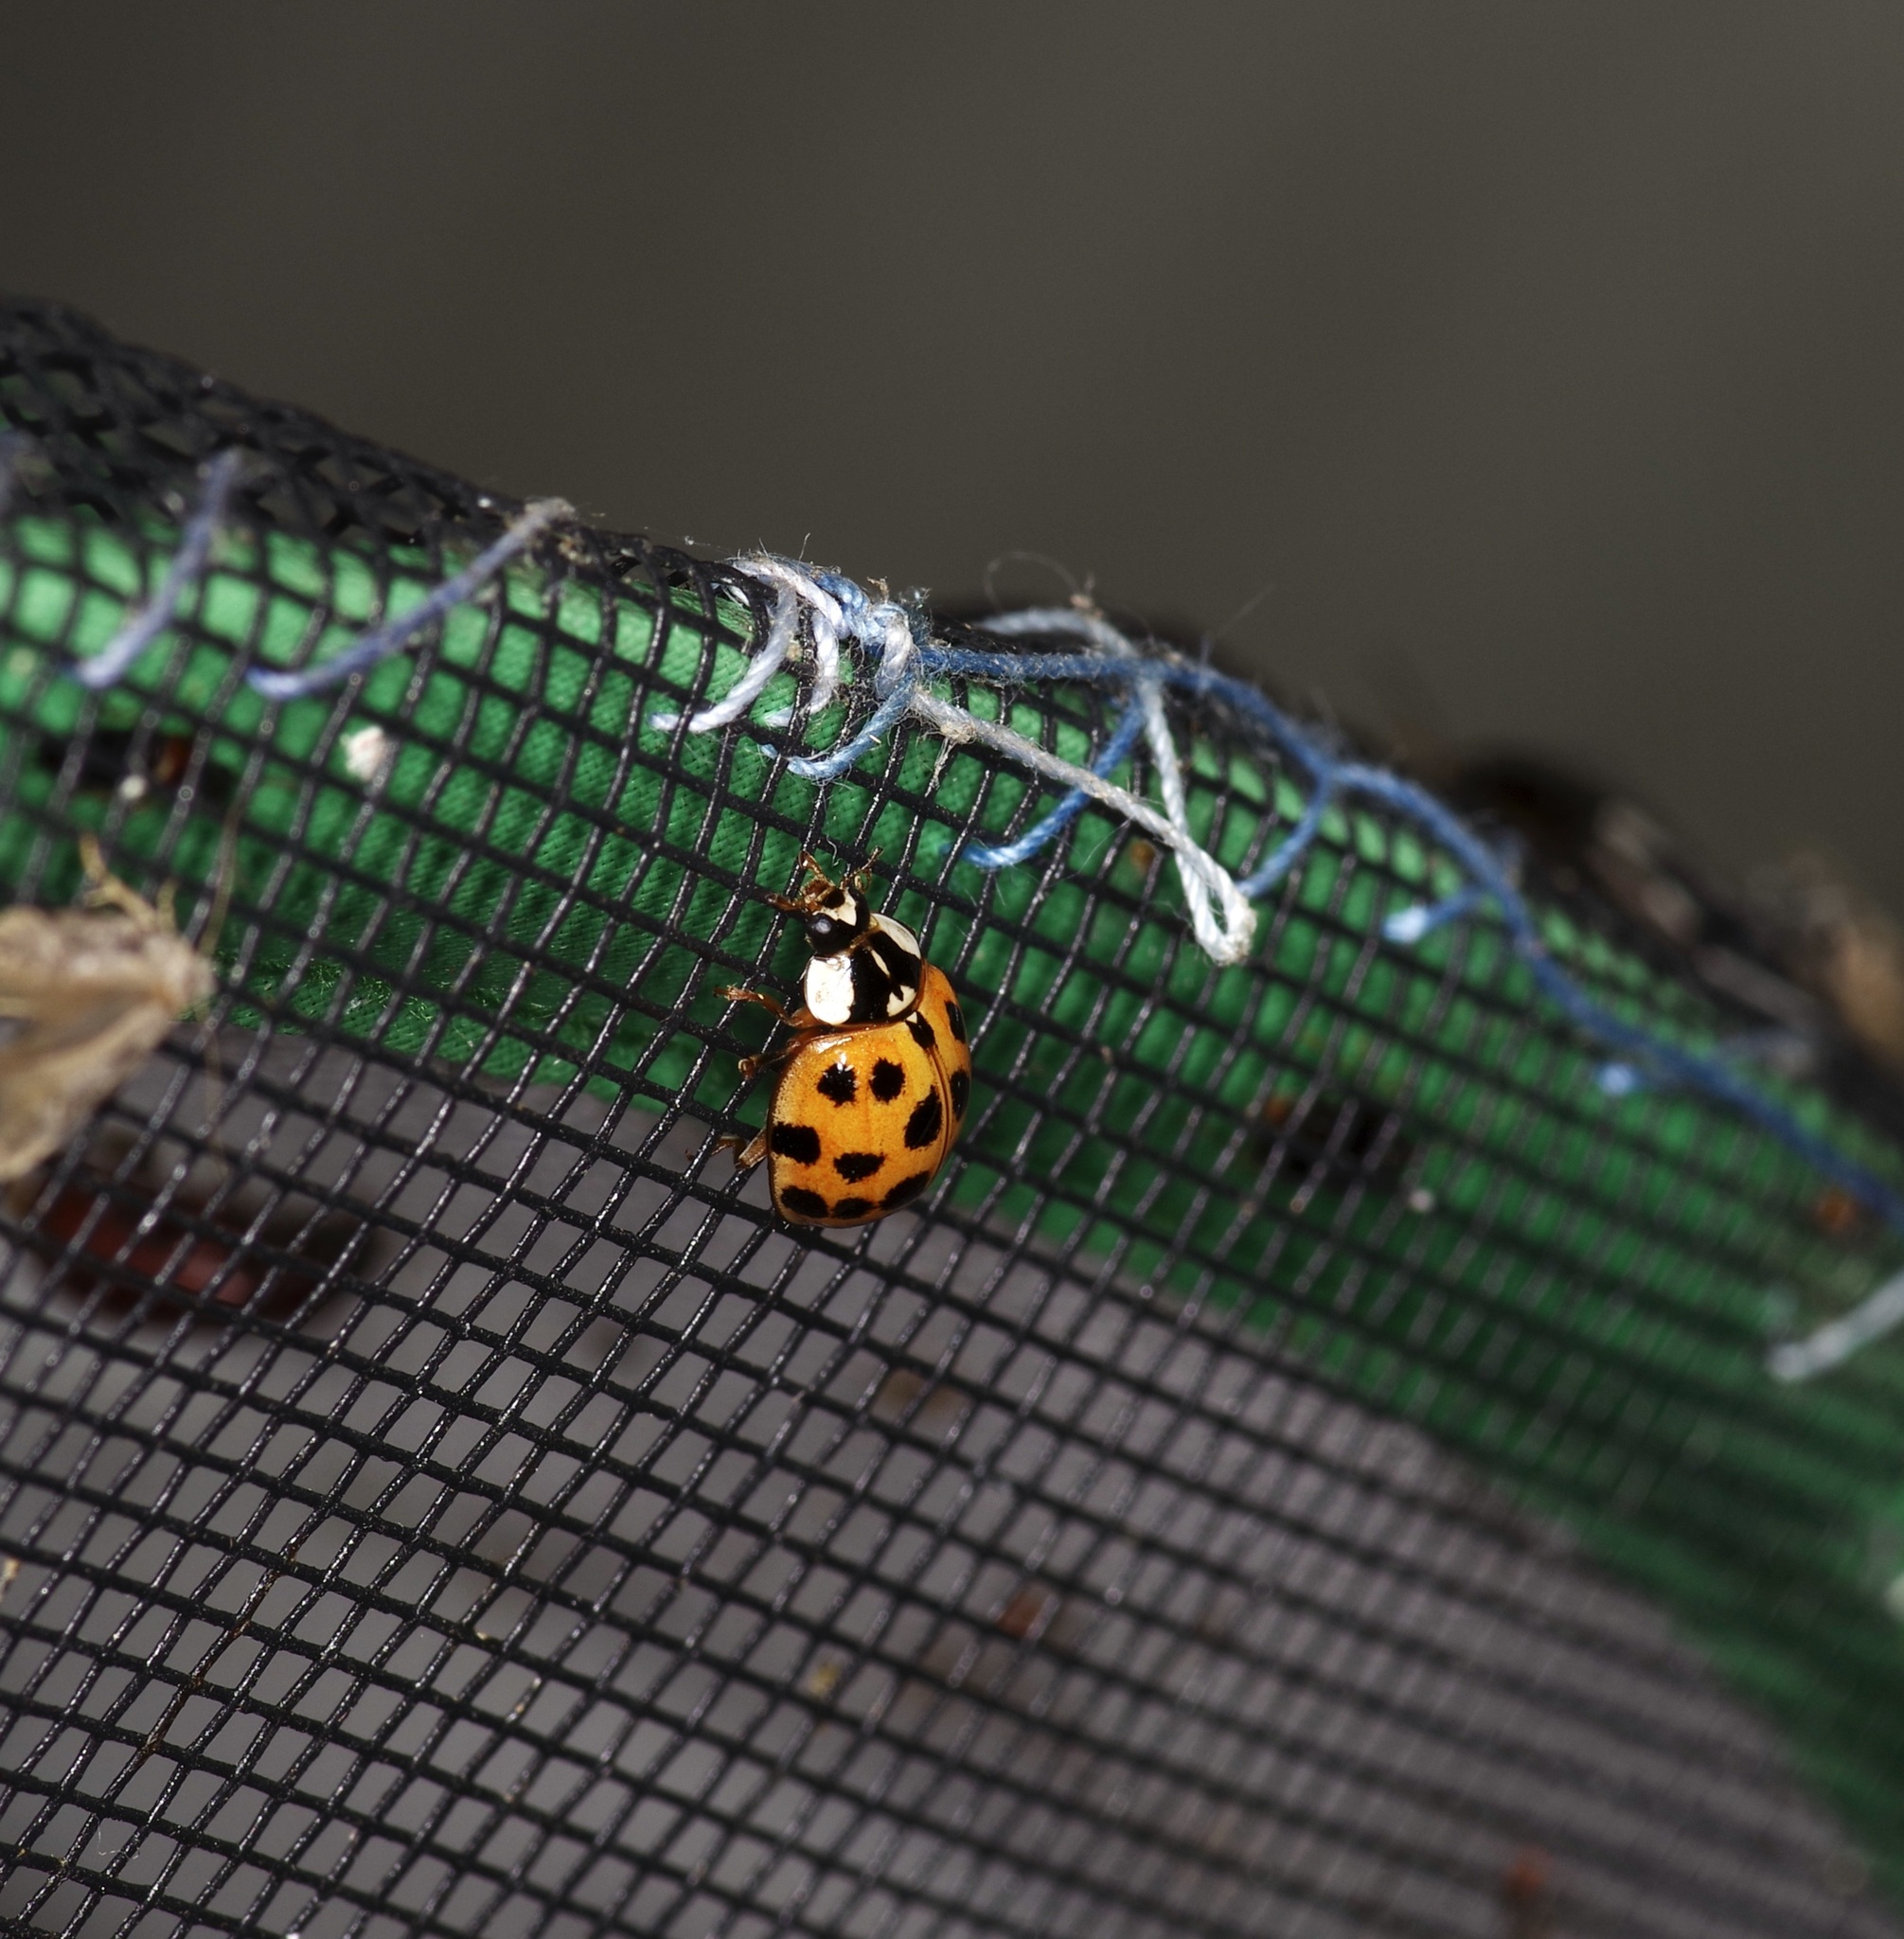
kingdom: Animalia
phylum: Arthropoda
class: Insecta
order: Coleoptera
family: Coccinellidae
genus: Harmonia
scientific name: Harmonia axyridis
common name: Harlequin ladybird
